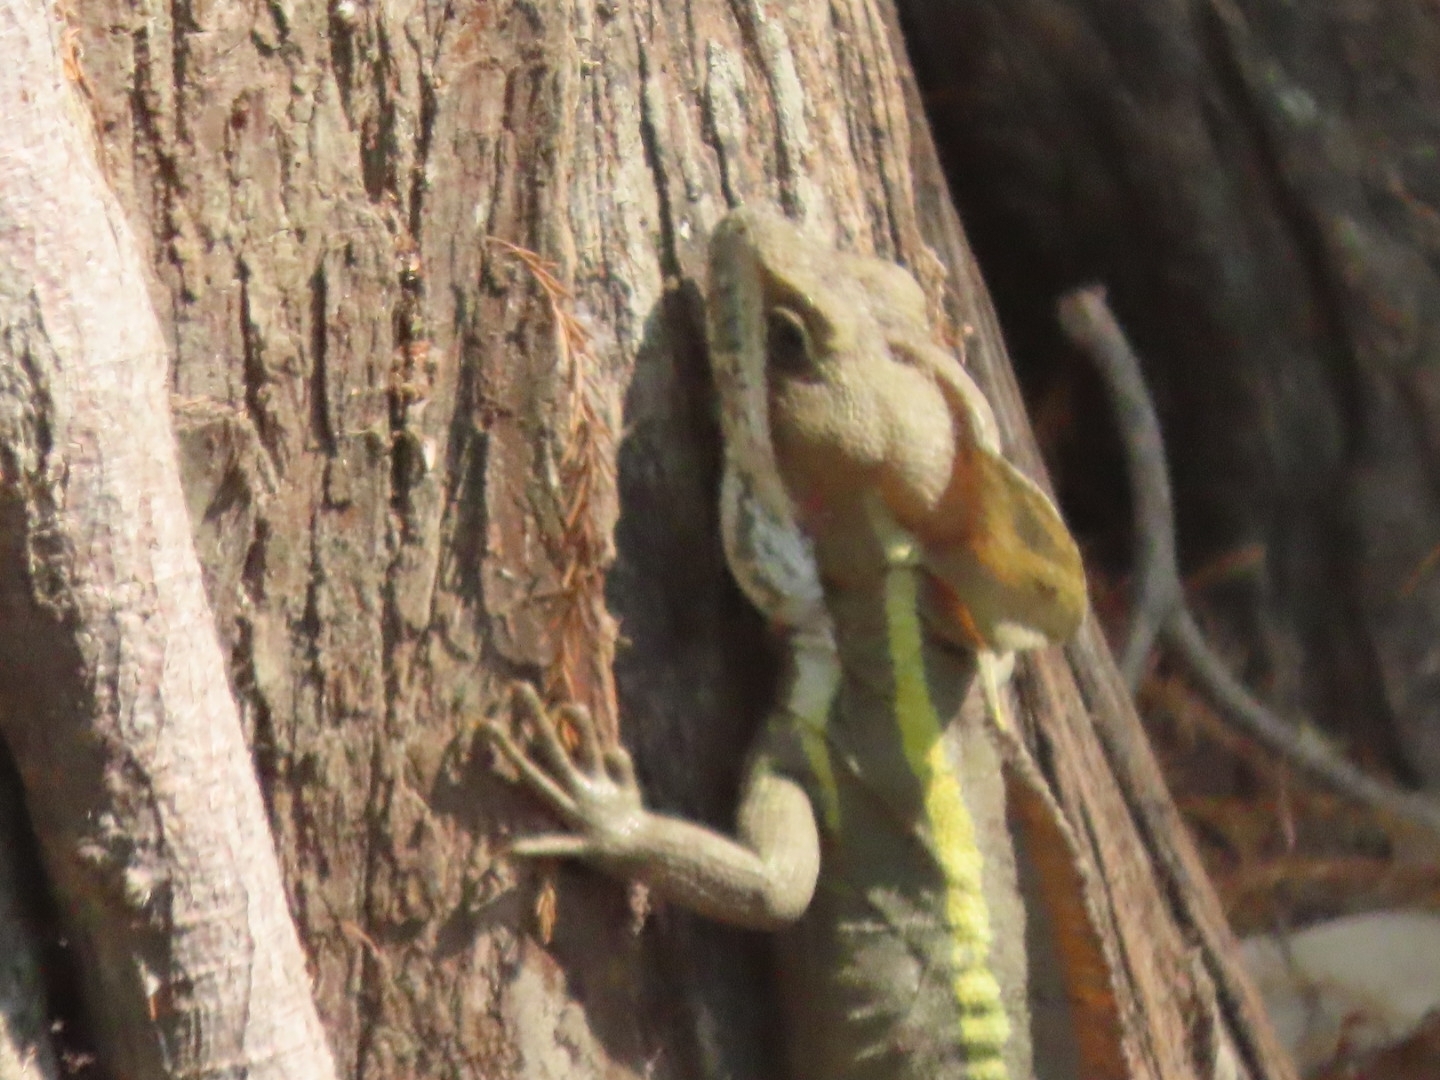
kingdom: Animalia
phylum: Chordata
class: Squamata
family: Corytophanidae
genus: Basiliscus
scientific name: Basiliscus vittatus
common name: Brown basilisk
